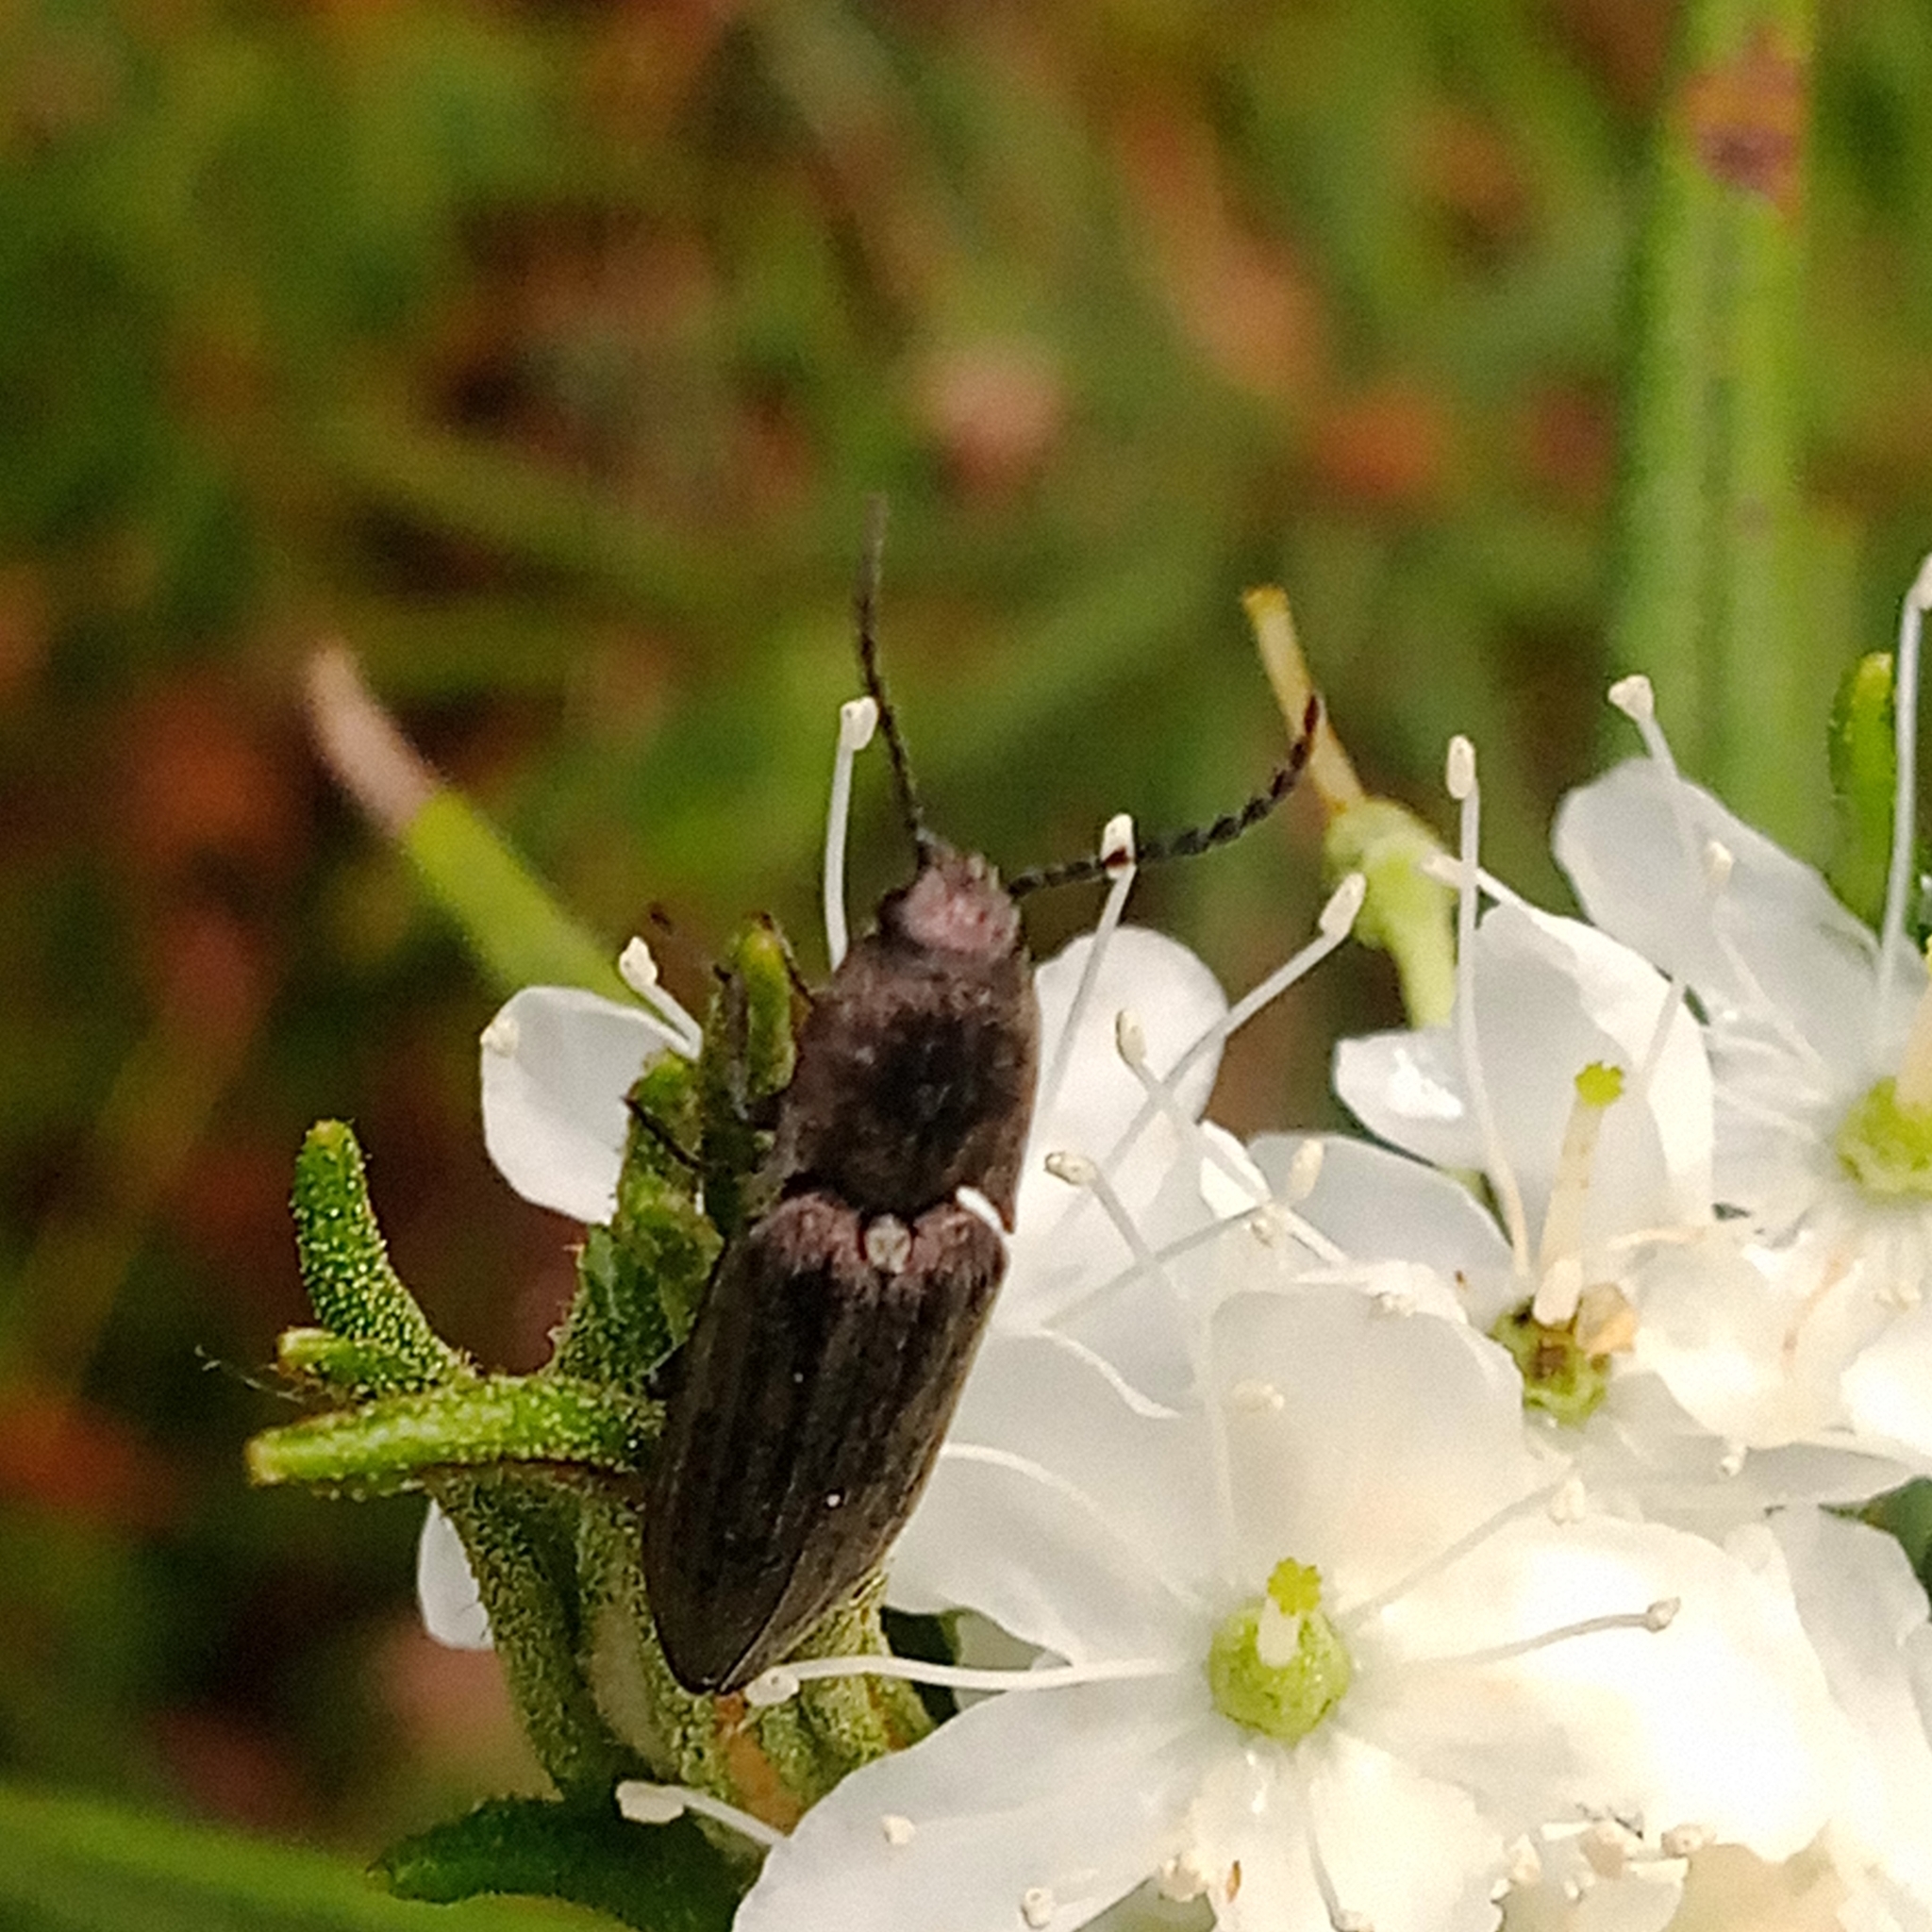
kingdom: Animalia
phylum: Arthropoda
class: Insecta
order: Coleoptera
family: Elateridae
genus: Actenicerus
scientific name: Actenicerus sjaelandicus
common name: Marsh click beetle
